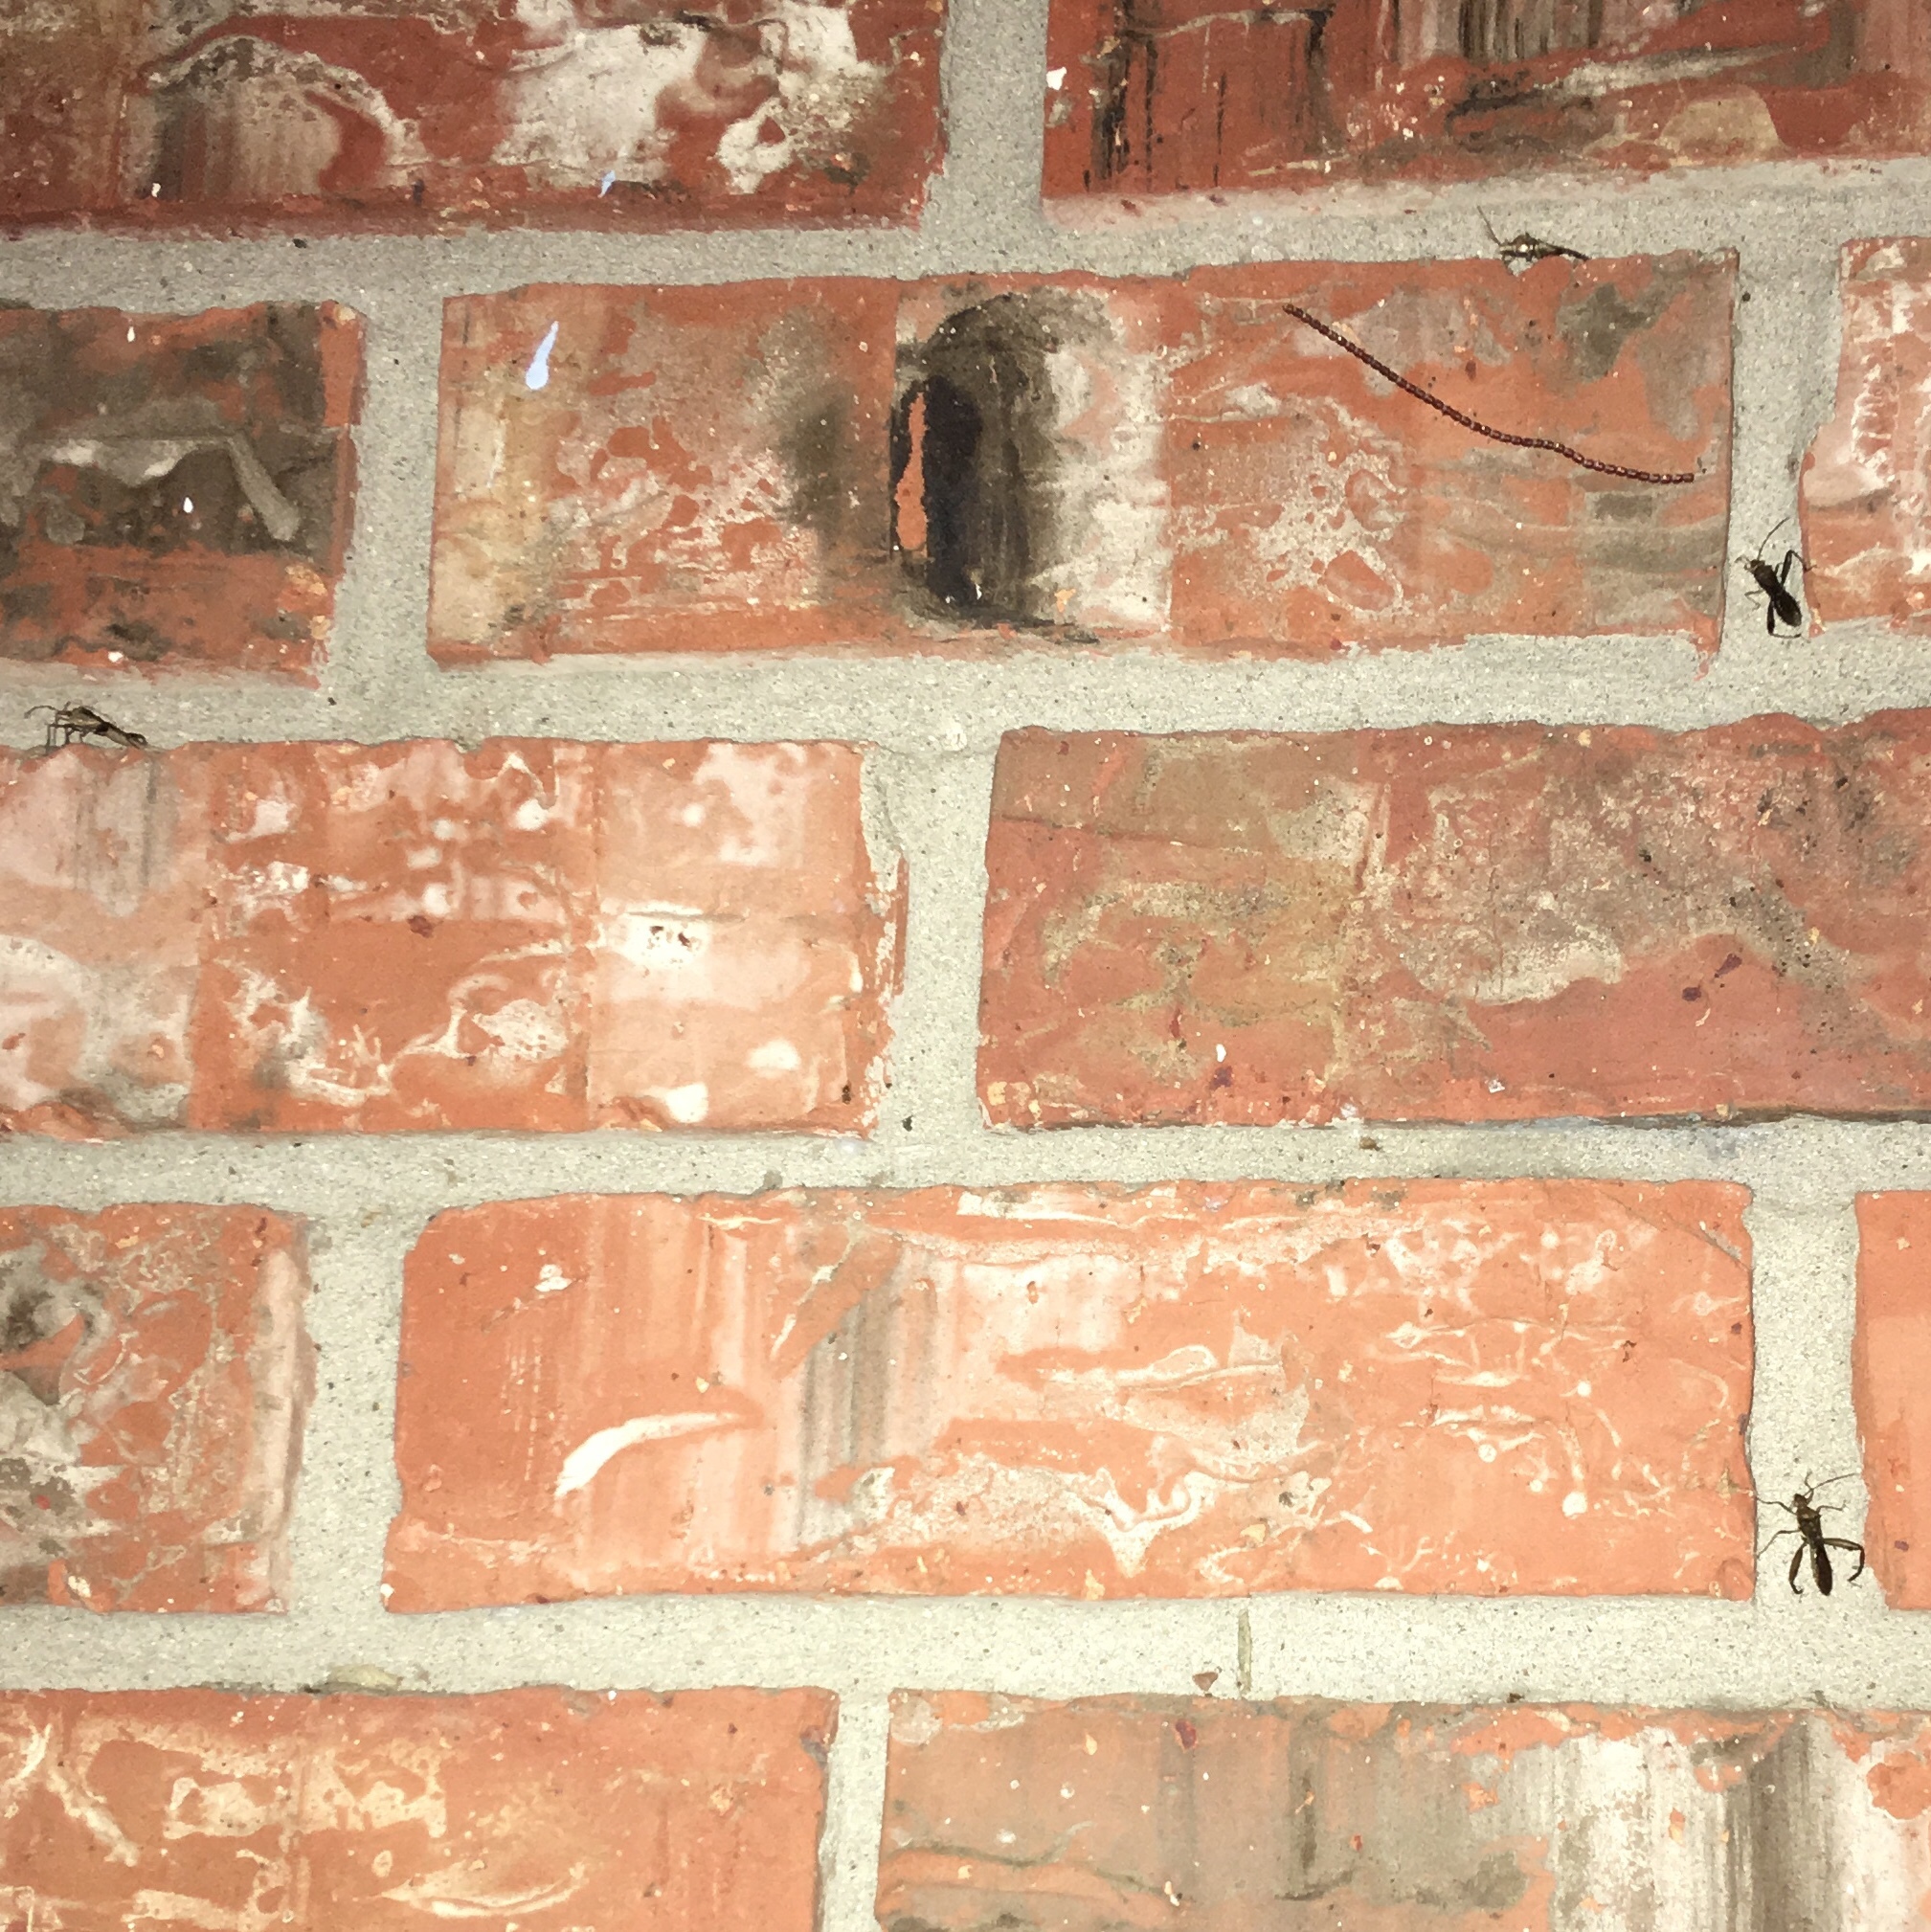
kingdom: Animalia
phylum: Arthropoda
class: Insecta
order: Hemiptera
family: Alydidae
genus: Hyalymenus
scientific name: Hyalymenus tarsatus
